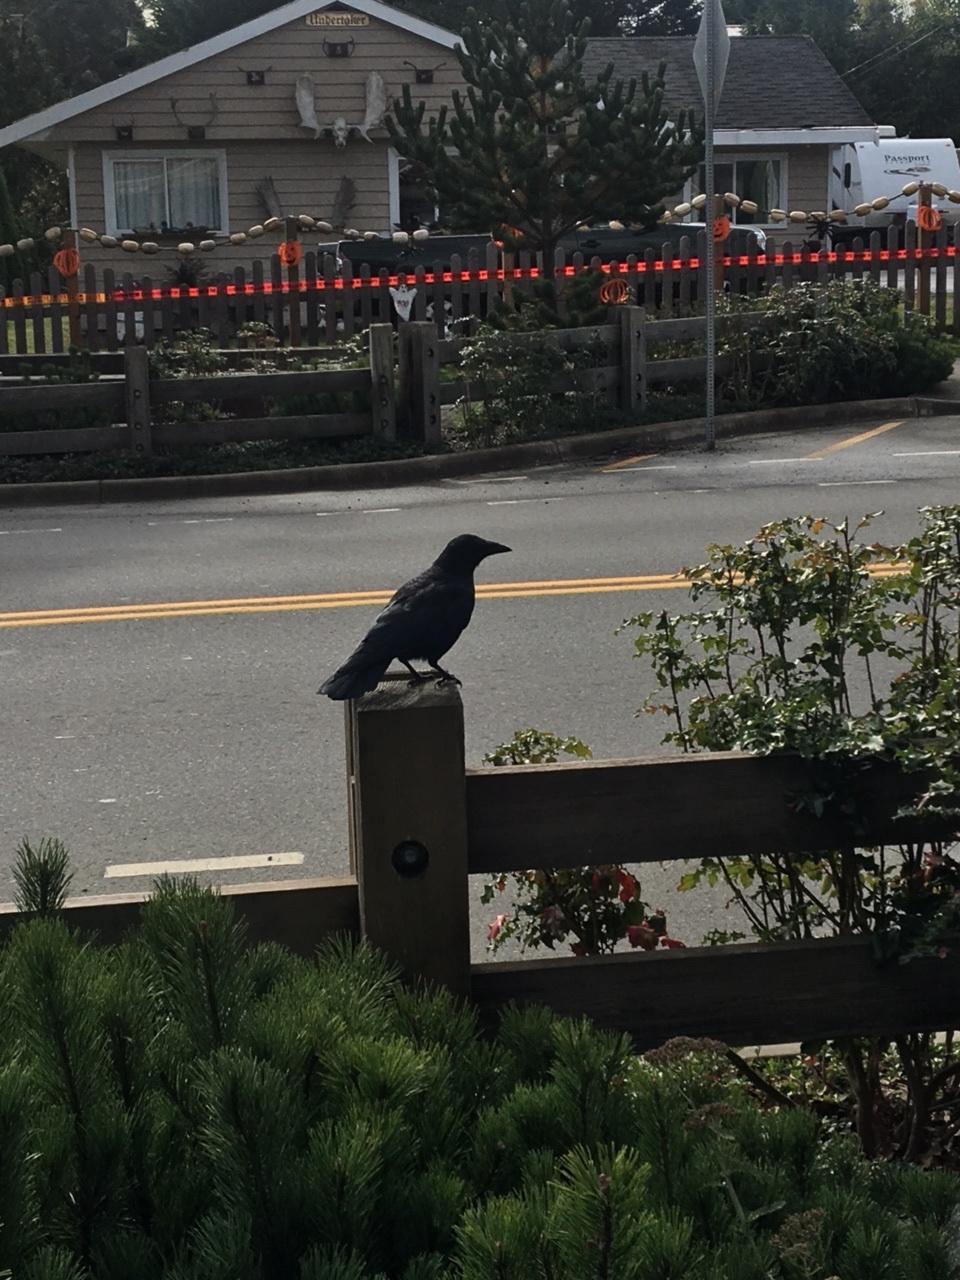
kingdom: Animalia
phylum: Chordata
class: Aves
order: Passeriformes
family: Corvidae
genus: Corvus
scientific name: Corvus brachyrhynchos
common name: American crow
